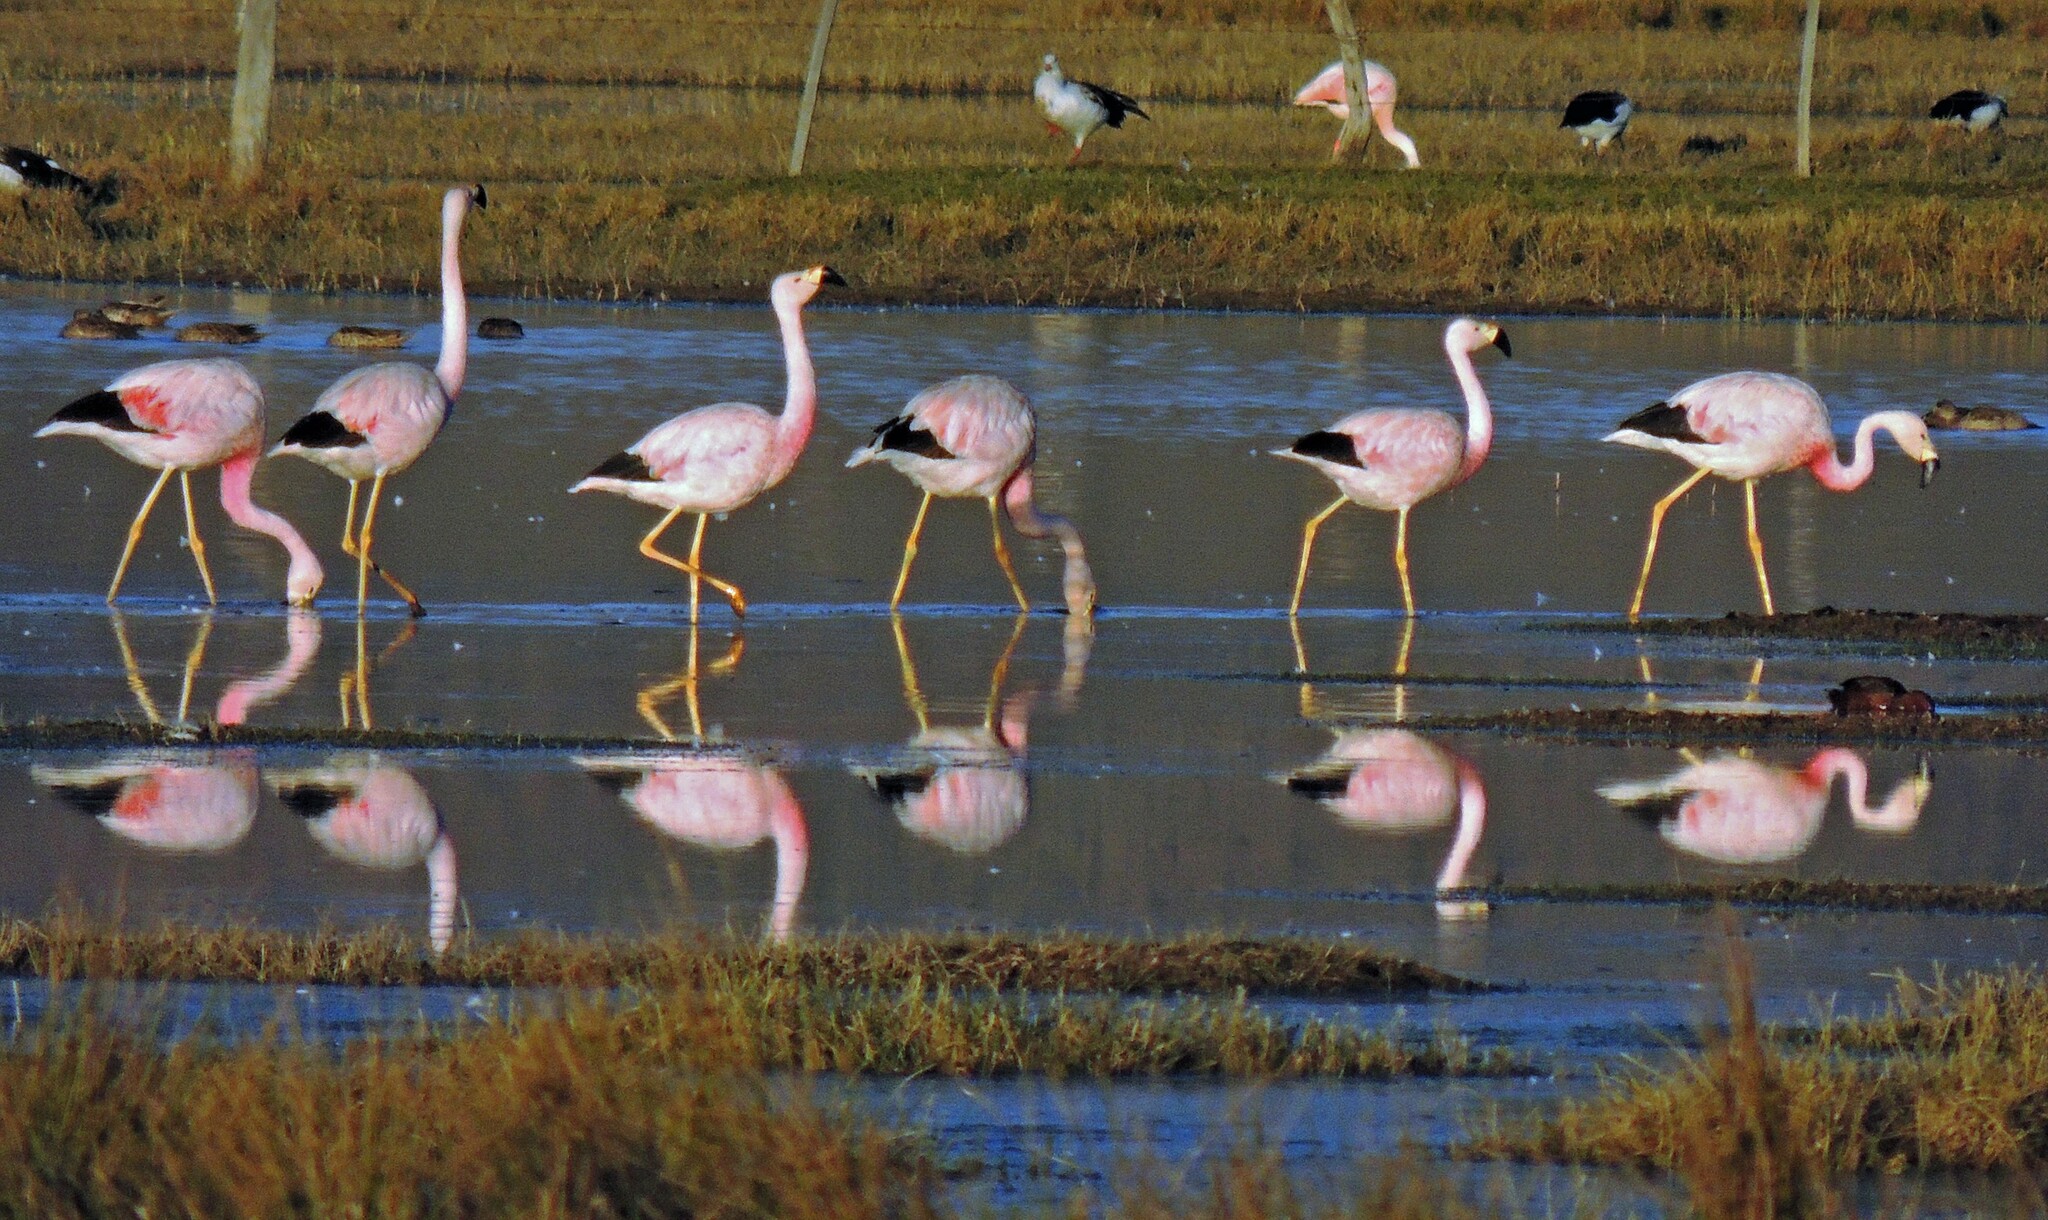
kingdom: Animalia
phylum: Chordata
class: Aves
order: Phoenicopteriformes
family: Phoenicopteridae
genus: Phoenicoparrus
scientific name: Phoenicoparrus andinus
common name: Andean flamingo
